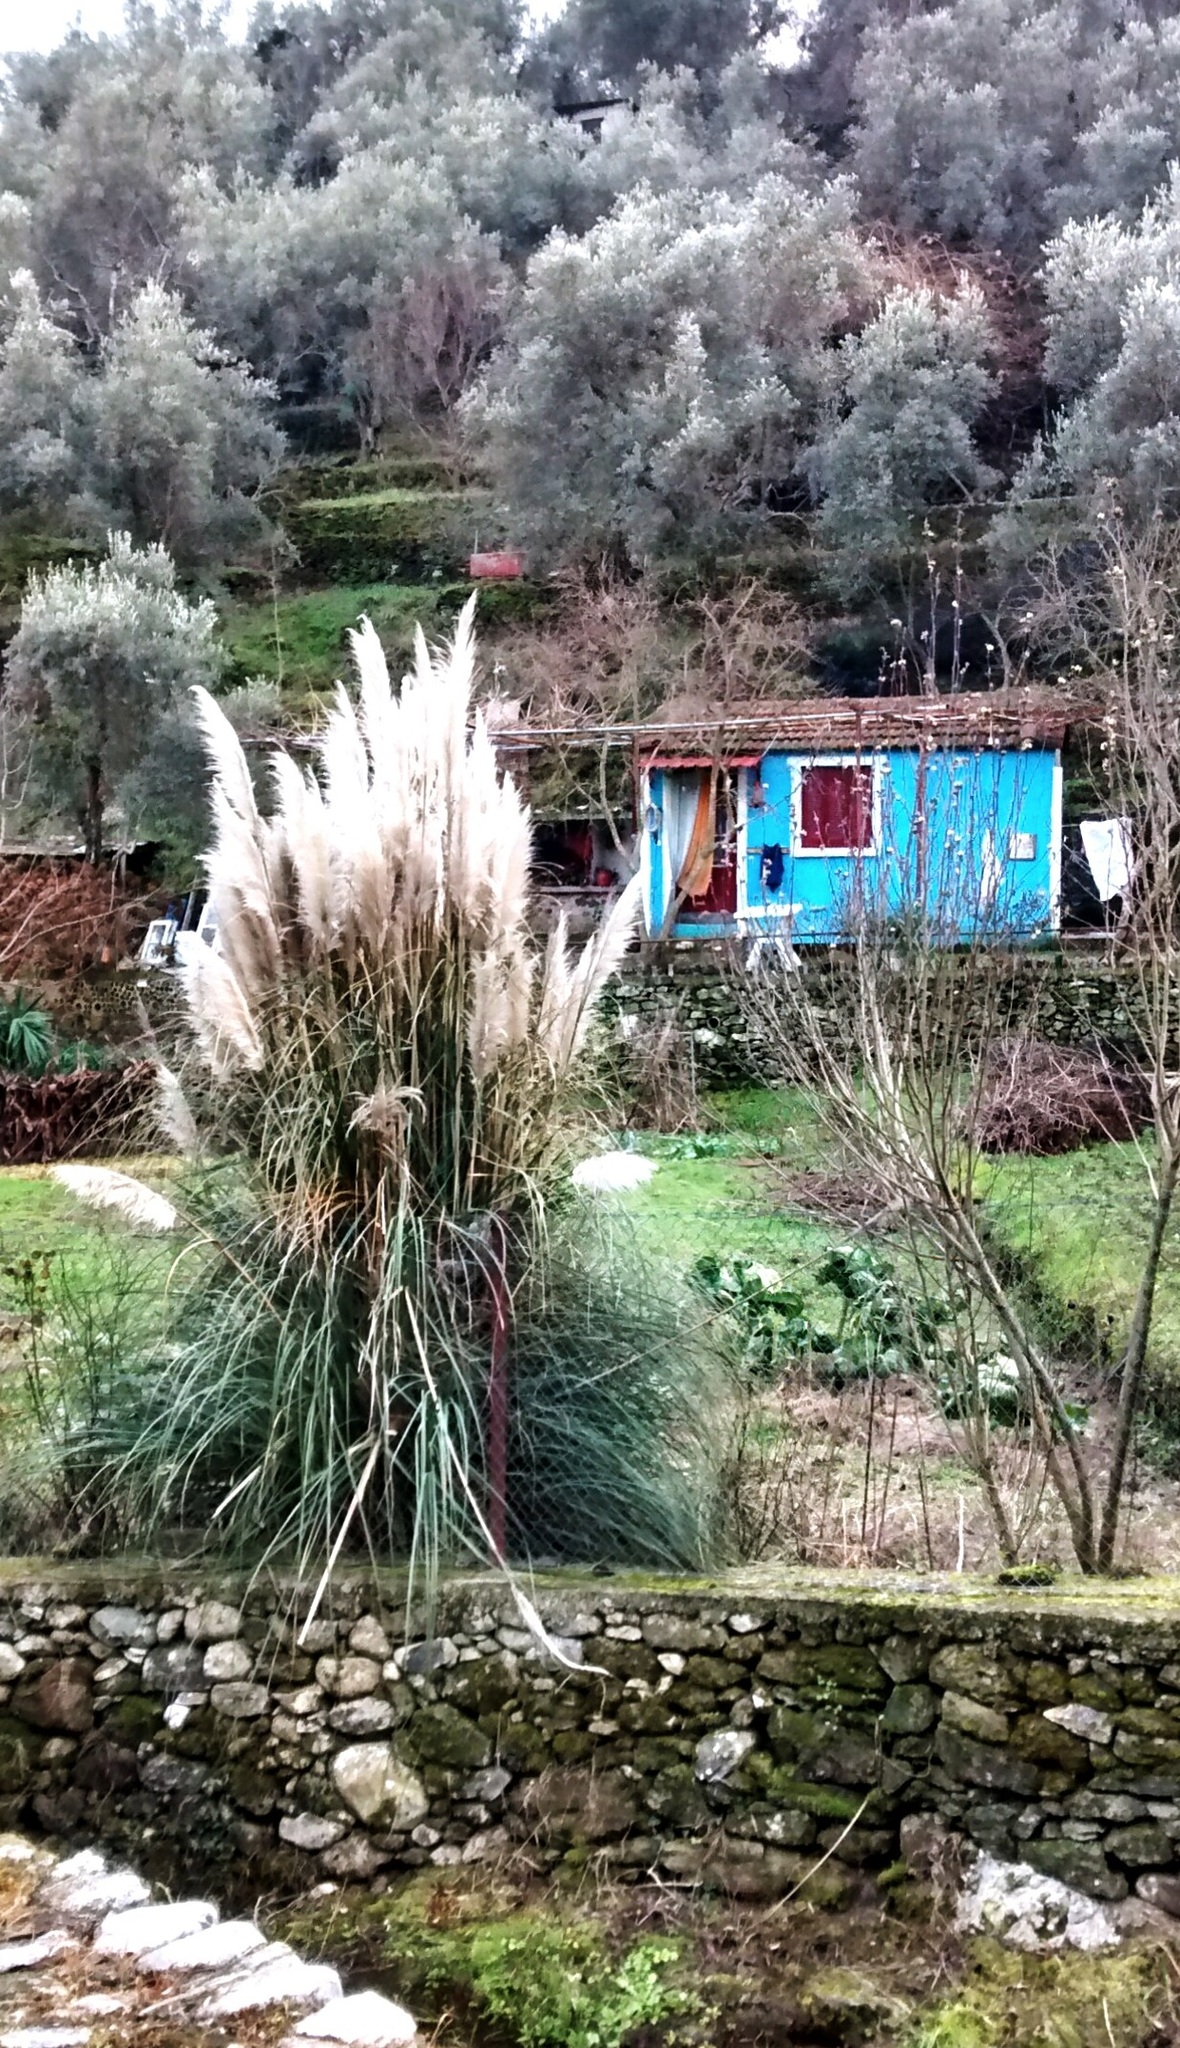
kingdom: Plantae
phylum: Tracheophyta
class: Liliopsida
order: Poales
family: Poaceae
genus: Cortaderia
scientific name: Cortaderia selloana
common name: Uruguayan pampas grass
